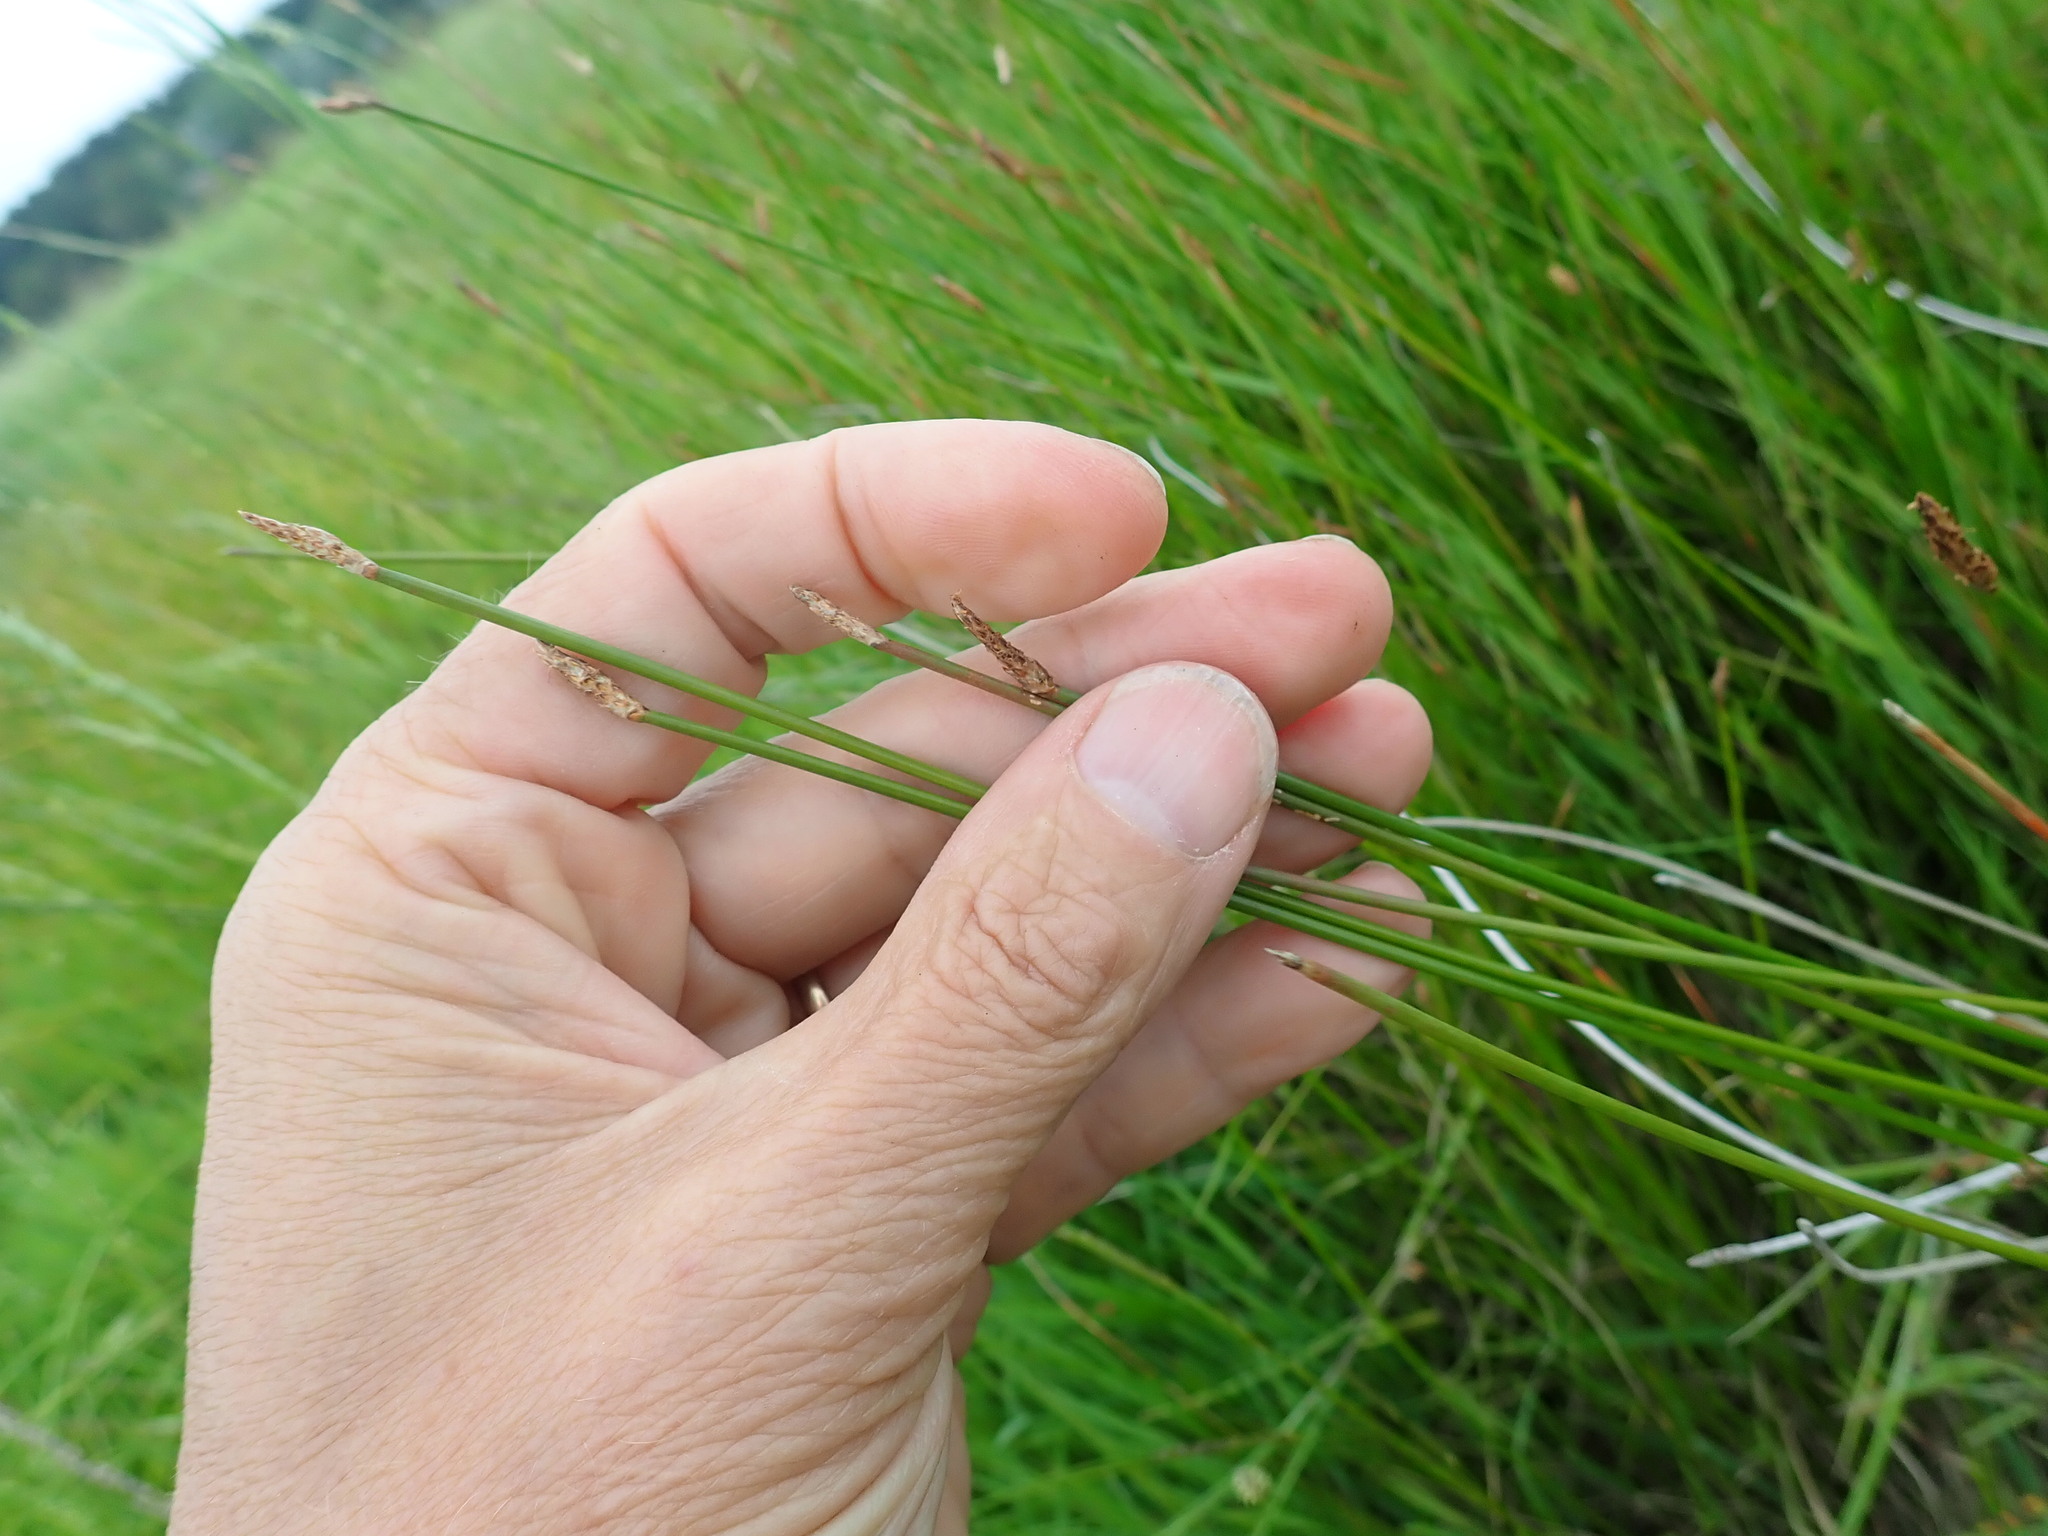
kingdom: Plantae
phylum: Tracheophyta
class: Liliopsida
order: Poales
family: Cyperaceae
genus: Eleocharis
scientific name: Eleocharis acuta
